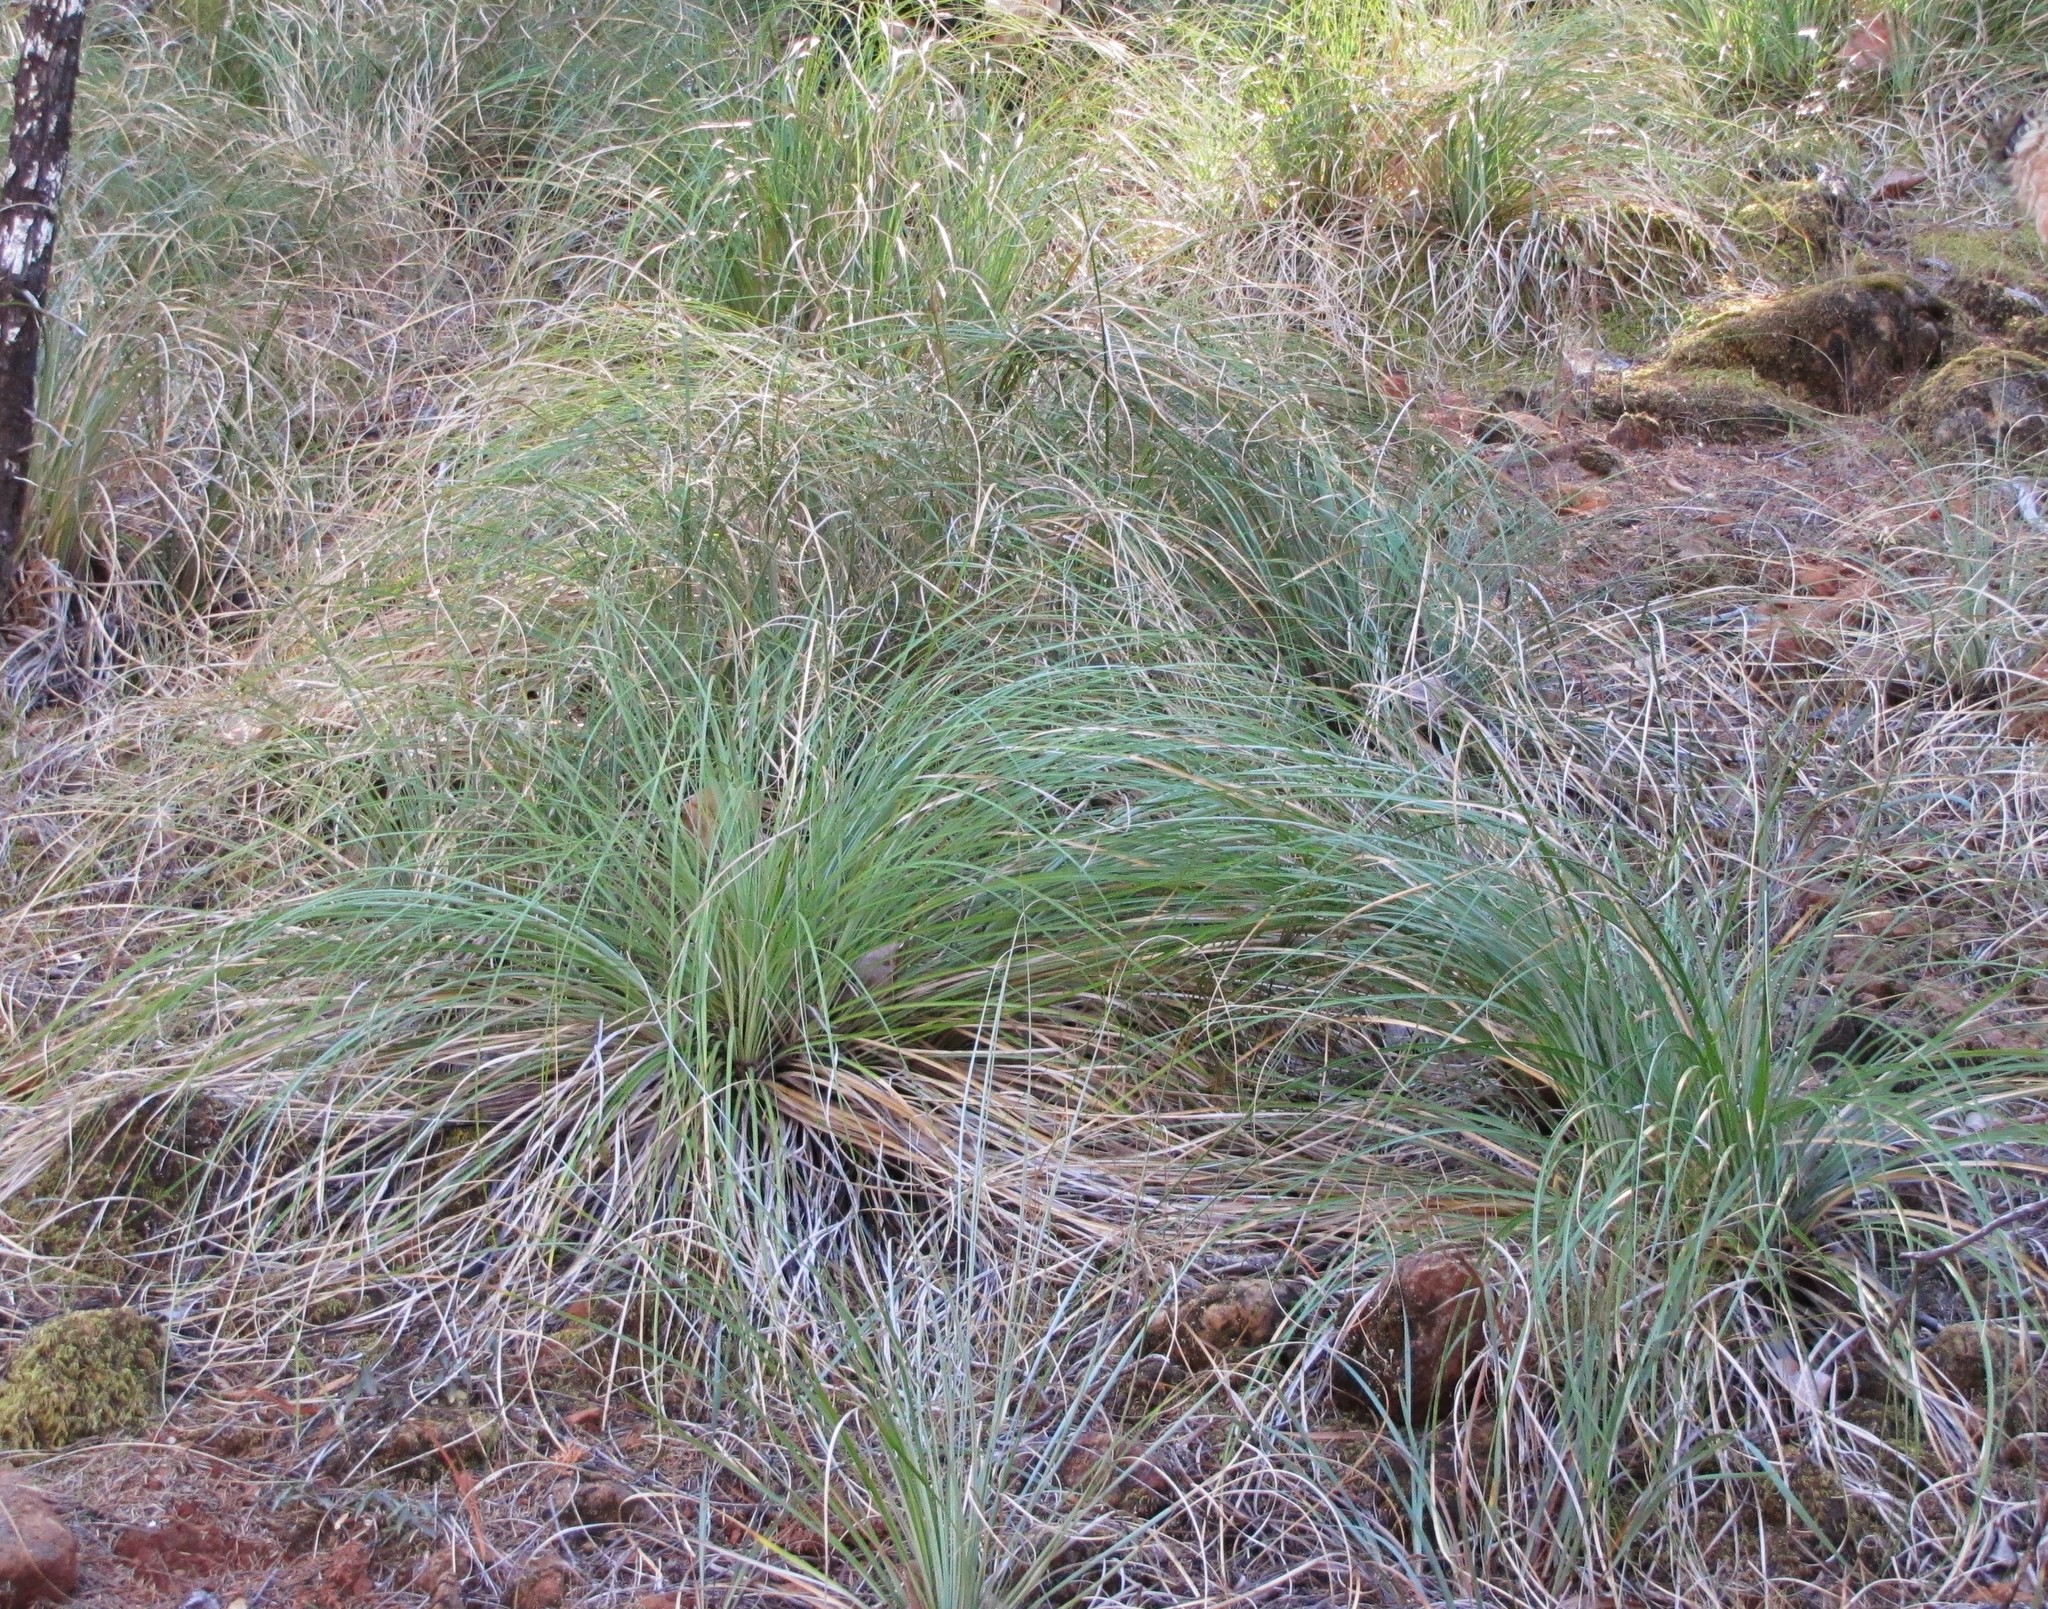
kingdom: Plantae
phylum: Tracheophyta
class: Liliopsida
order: Liliales
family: Melanthiaceae
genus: Xerophyllum
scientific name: Xerophyllum tenax
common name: Bear-grass
